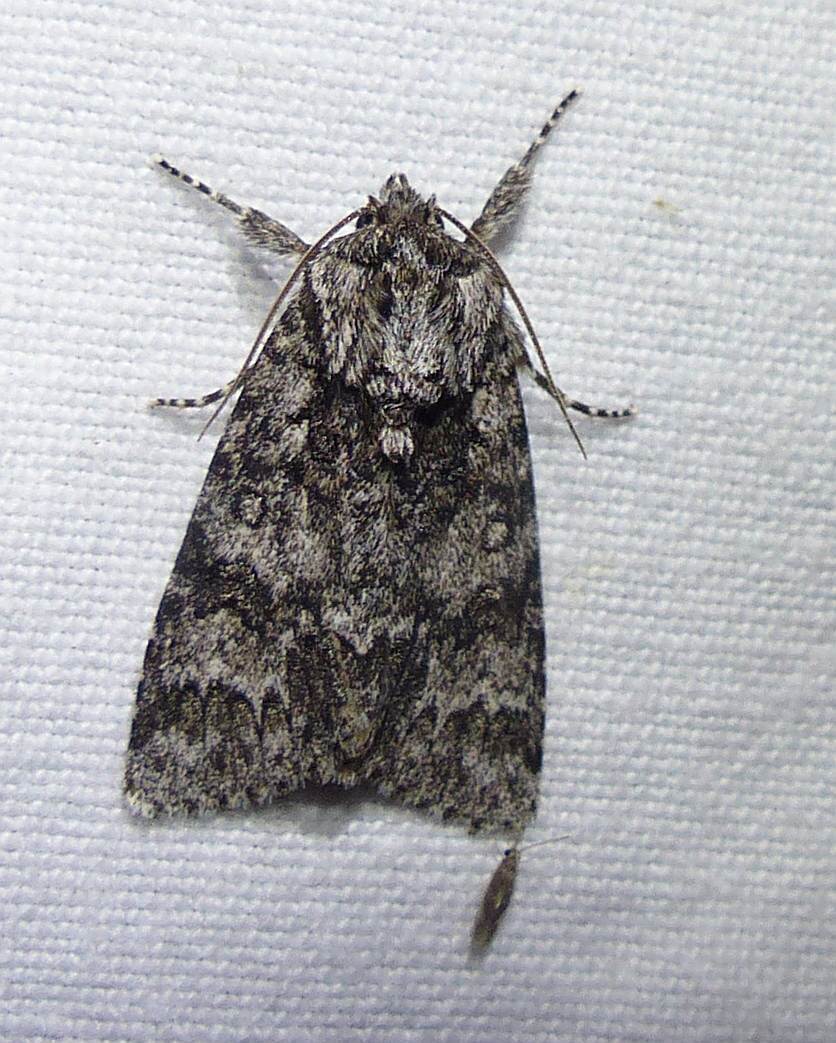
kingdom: Animalia
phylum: Arthropoda
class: Insecta
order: Lepidoptera
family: Noctuidae
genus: Acronicta
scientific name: Acronicta impressa
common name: Impressed dagger
